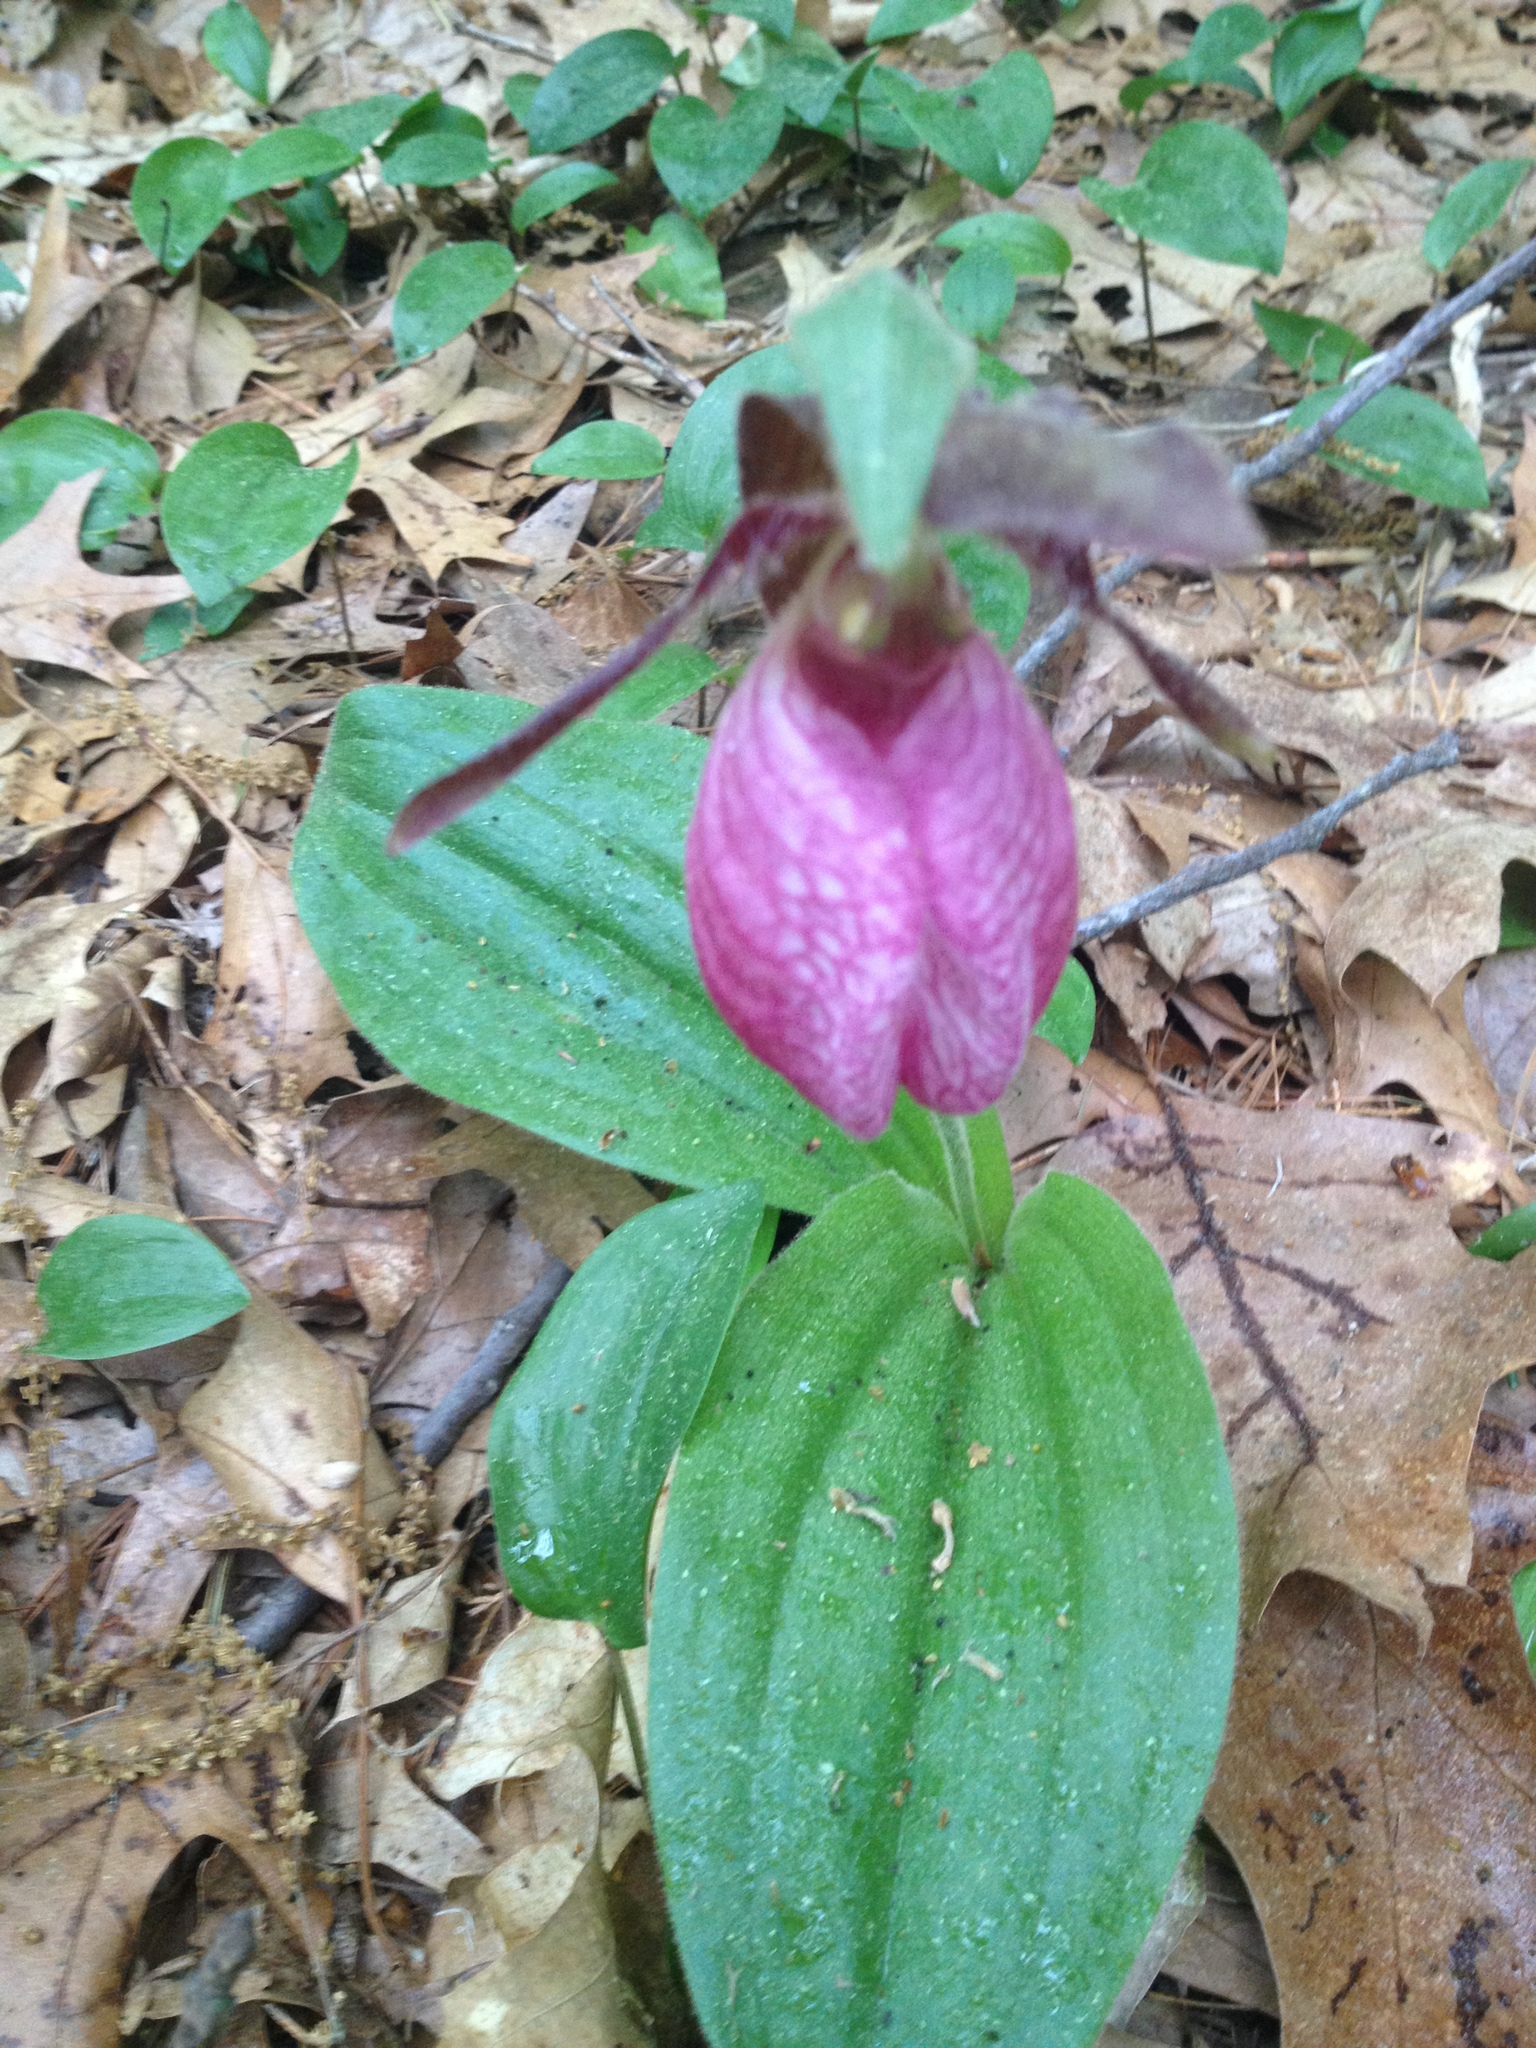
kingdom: Plantae
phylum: Tracheophyta
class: Liliopsida
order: Asparagales
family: Orchidaceae
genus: Cypripedium
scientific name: Cypripedium acaule
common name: Pink lady's-slipper
